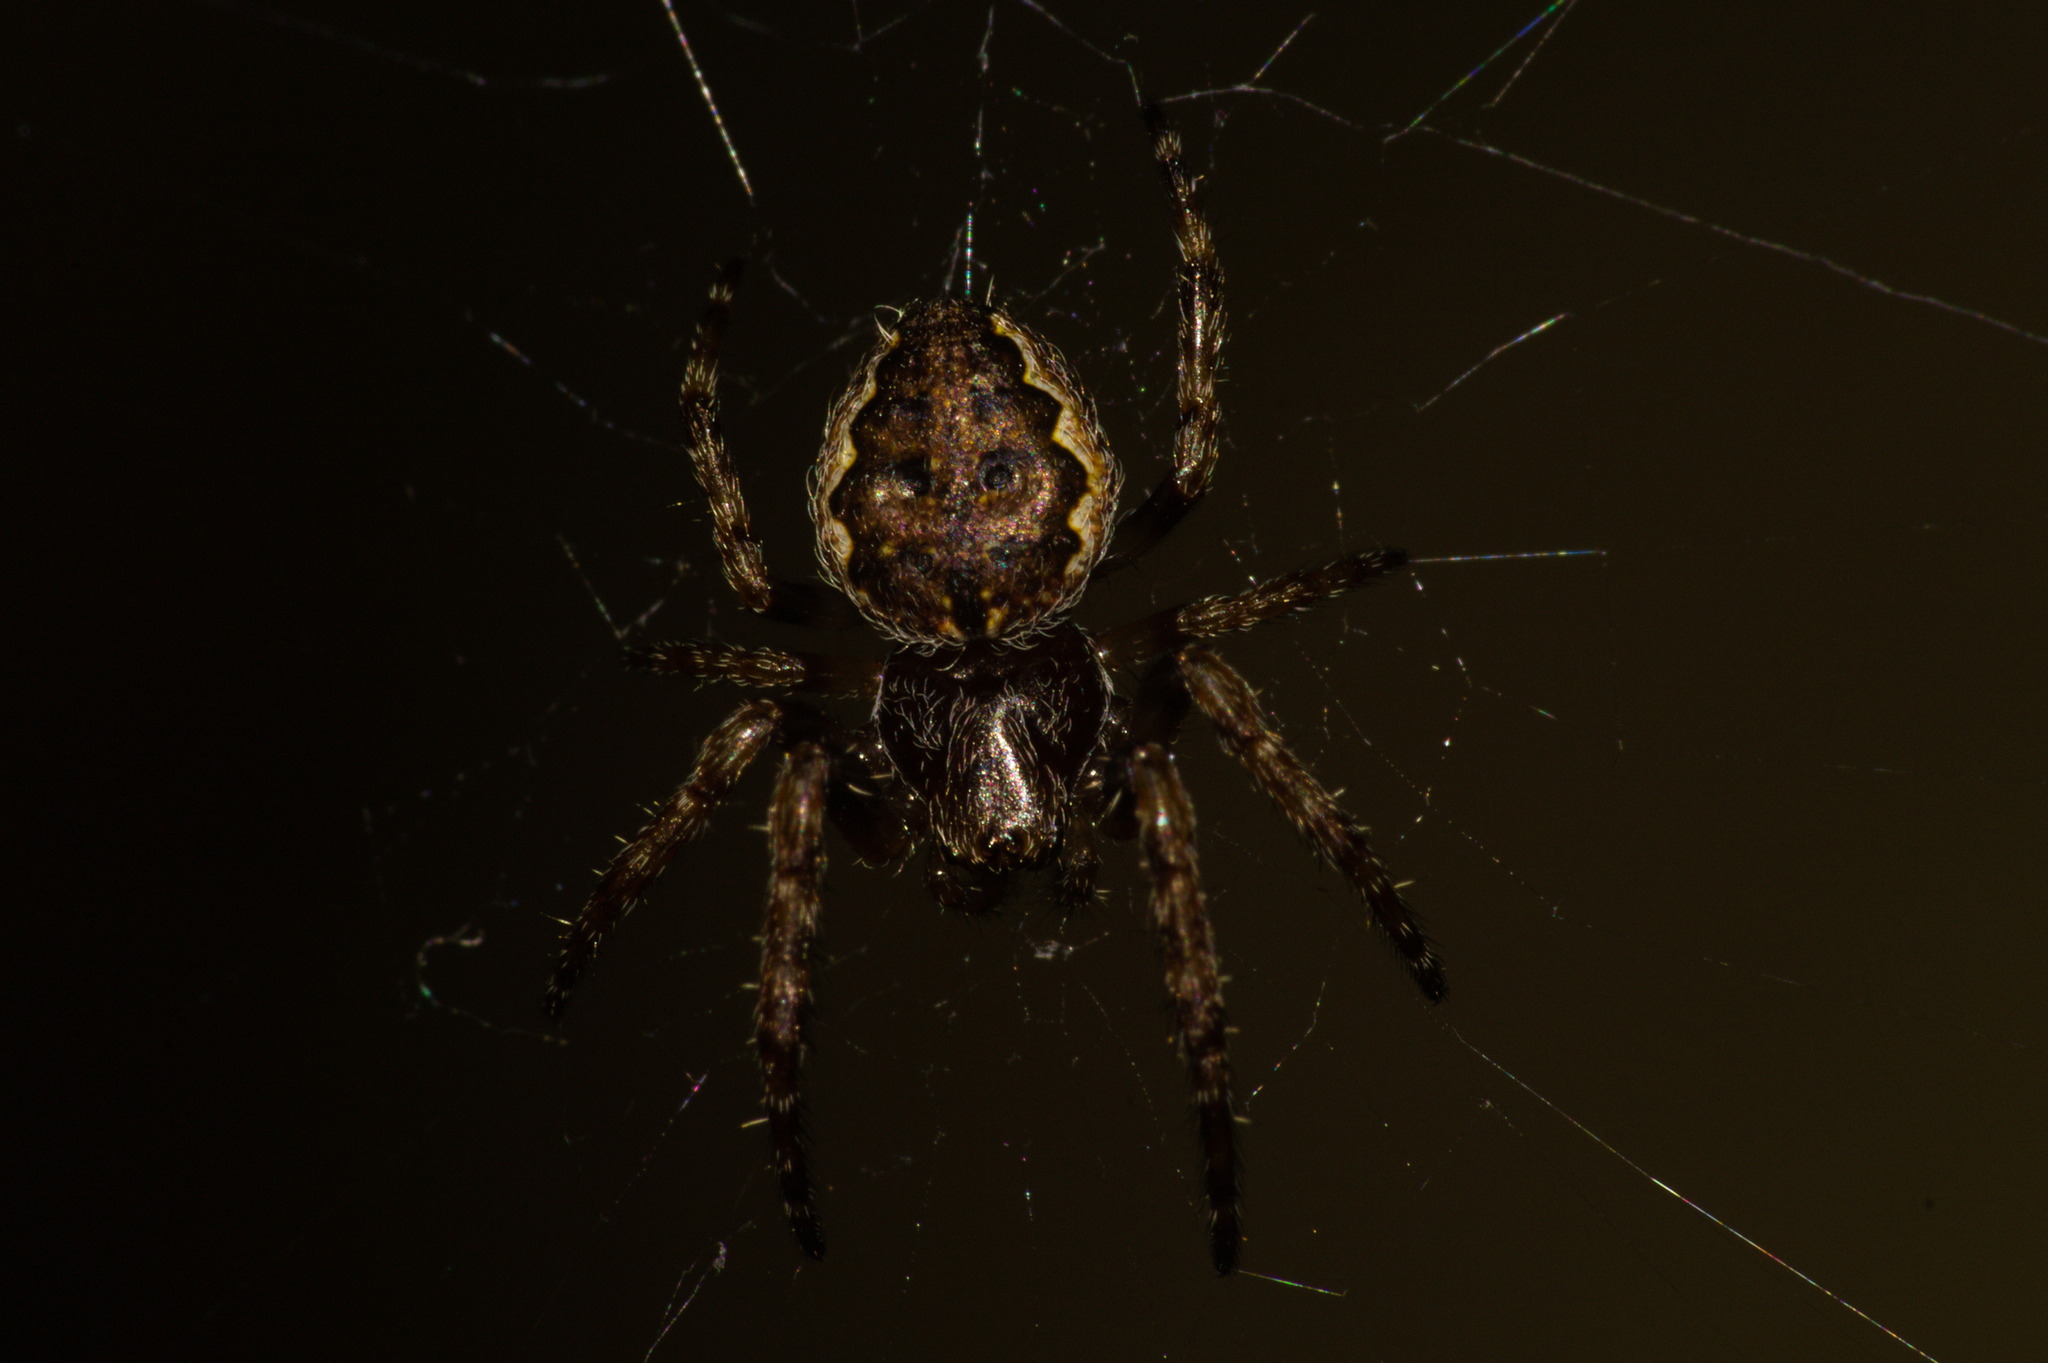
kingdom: Animalia
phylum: Arthropoda
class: Arachnida
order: Araneae
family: Araneidae
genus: Nuctenea
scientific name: Nuctenea umbratica
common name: Toad spider
